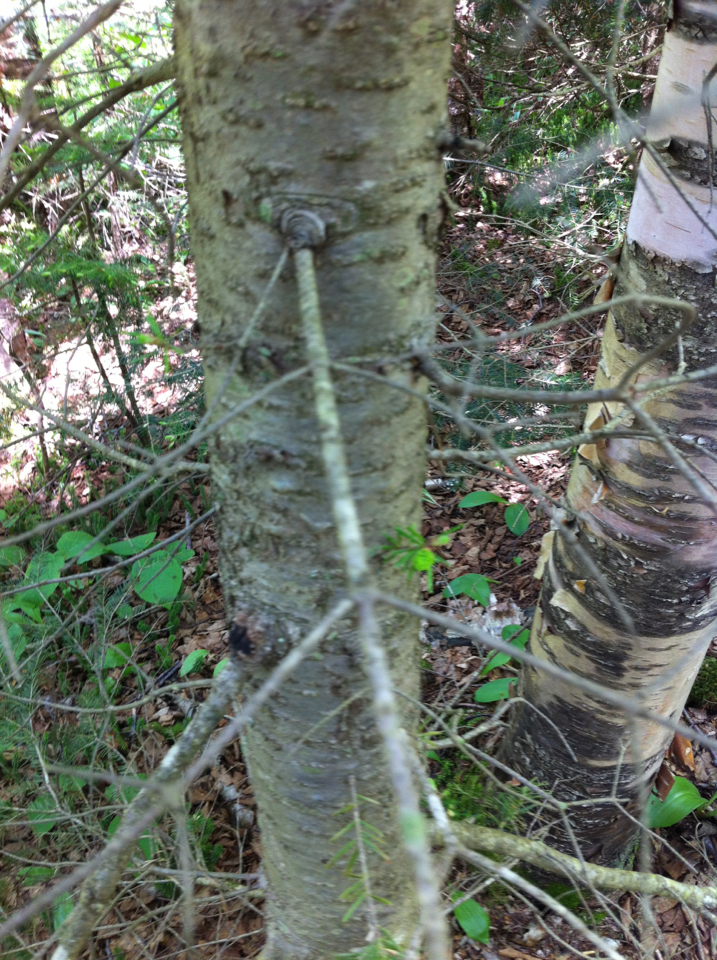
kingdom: Plantae
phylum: Tracheophyta
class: Pinopsida
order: Pinales
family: Pinaceae
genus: Abies
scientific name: Abies balsamea
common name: Balsam fir
